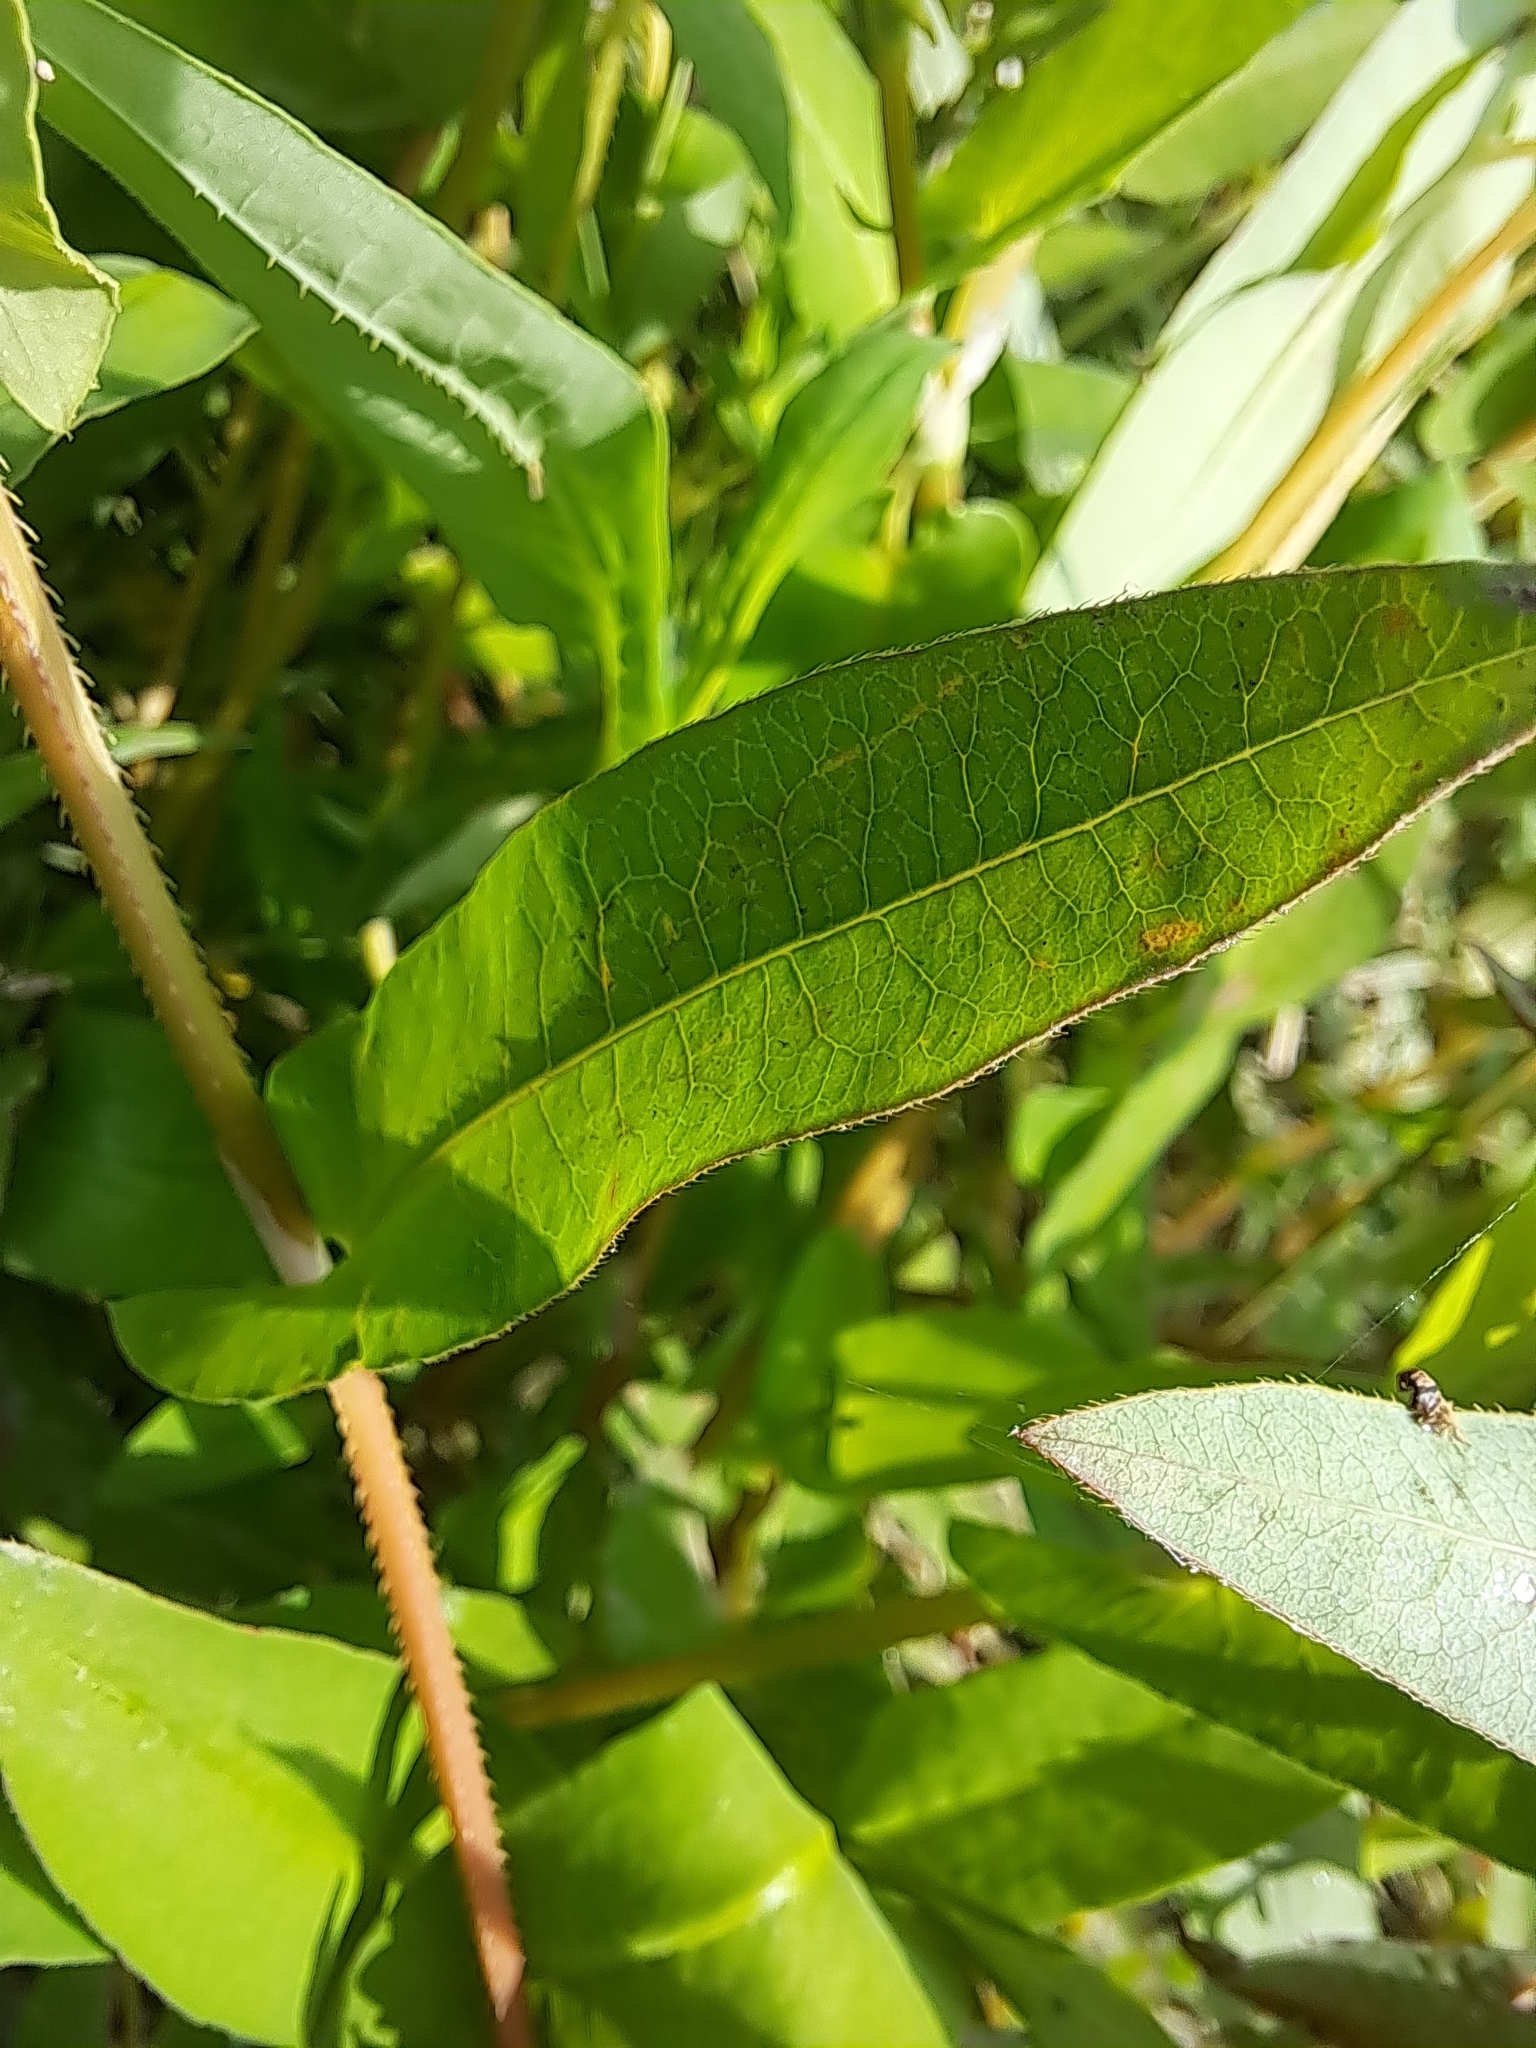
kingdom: Plantae
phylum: Tracheophyta
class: Magnoliopsida
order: Caryophyllales
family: Polygonaceae
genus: Persicaria
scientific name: Persicaria sagittata
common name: American tearthumb
